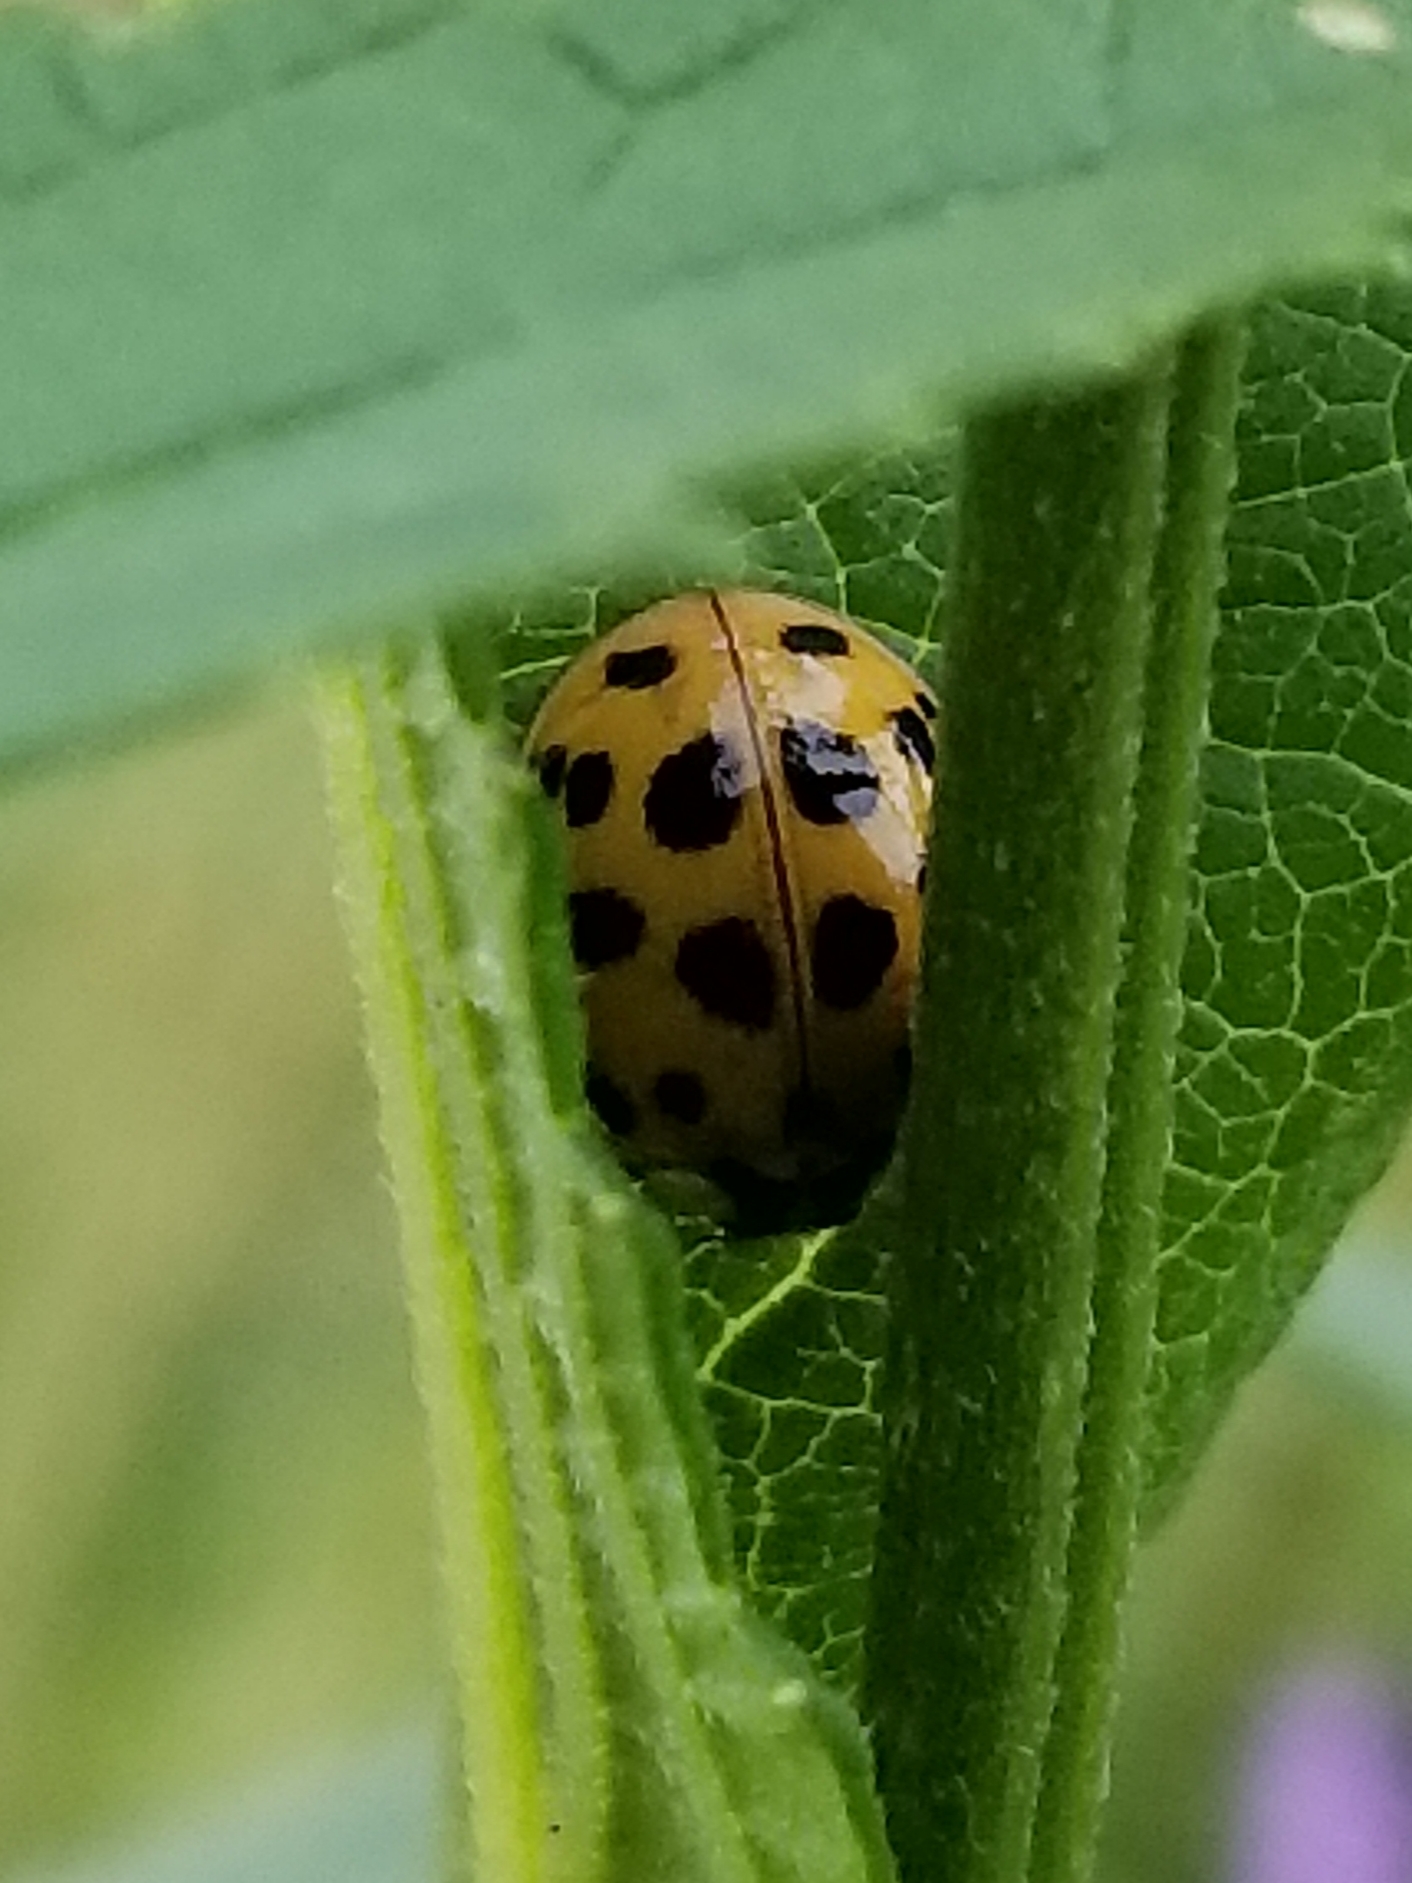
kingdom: Animalia
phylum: Arthropoda
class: Insecta
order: Coleoptera
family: Coccinellidae
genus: Harmonia
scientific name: Harmonia axyridis
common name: Harlequin ladybird
